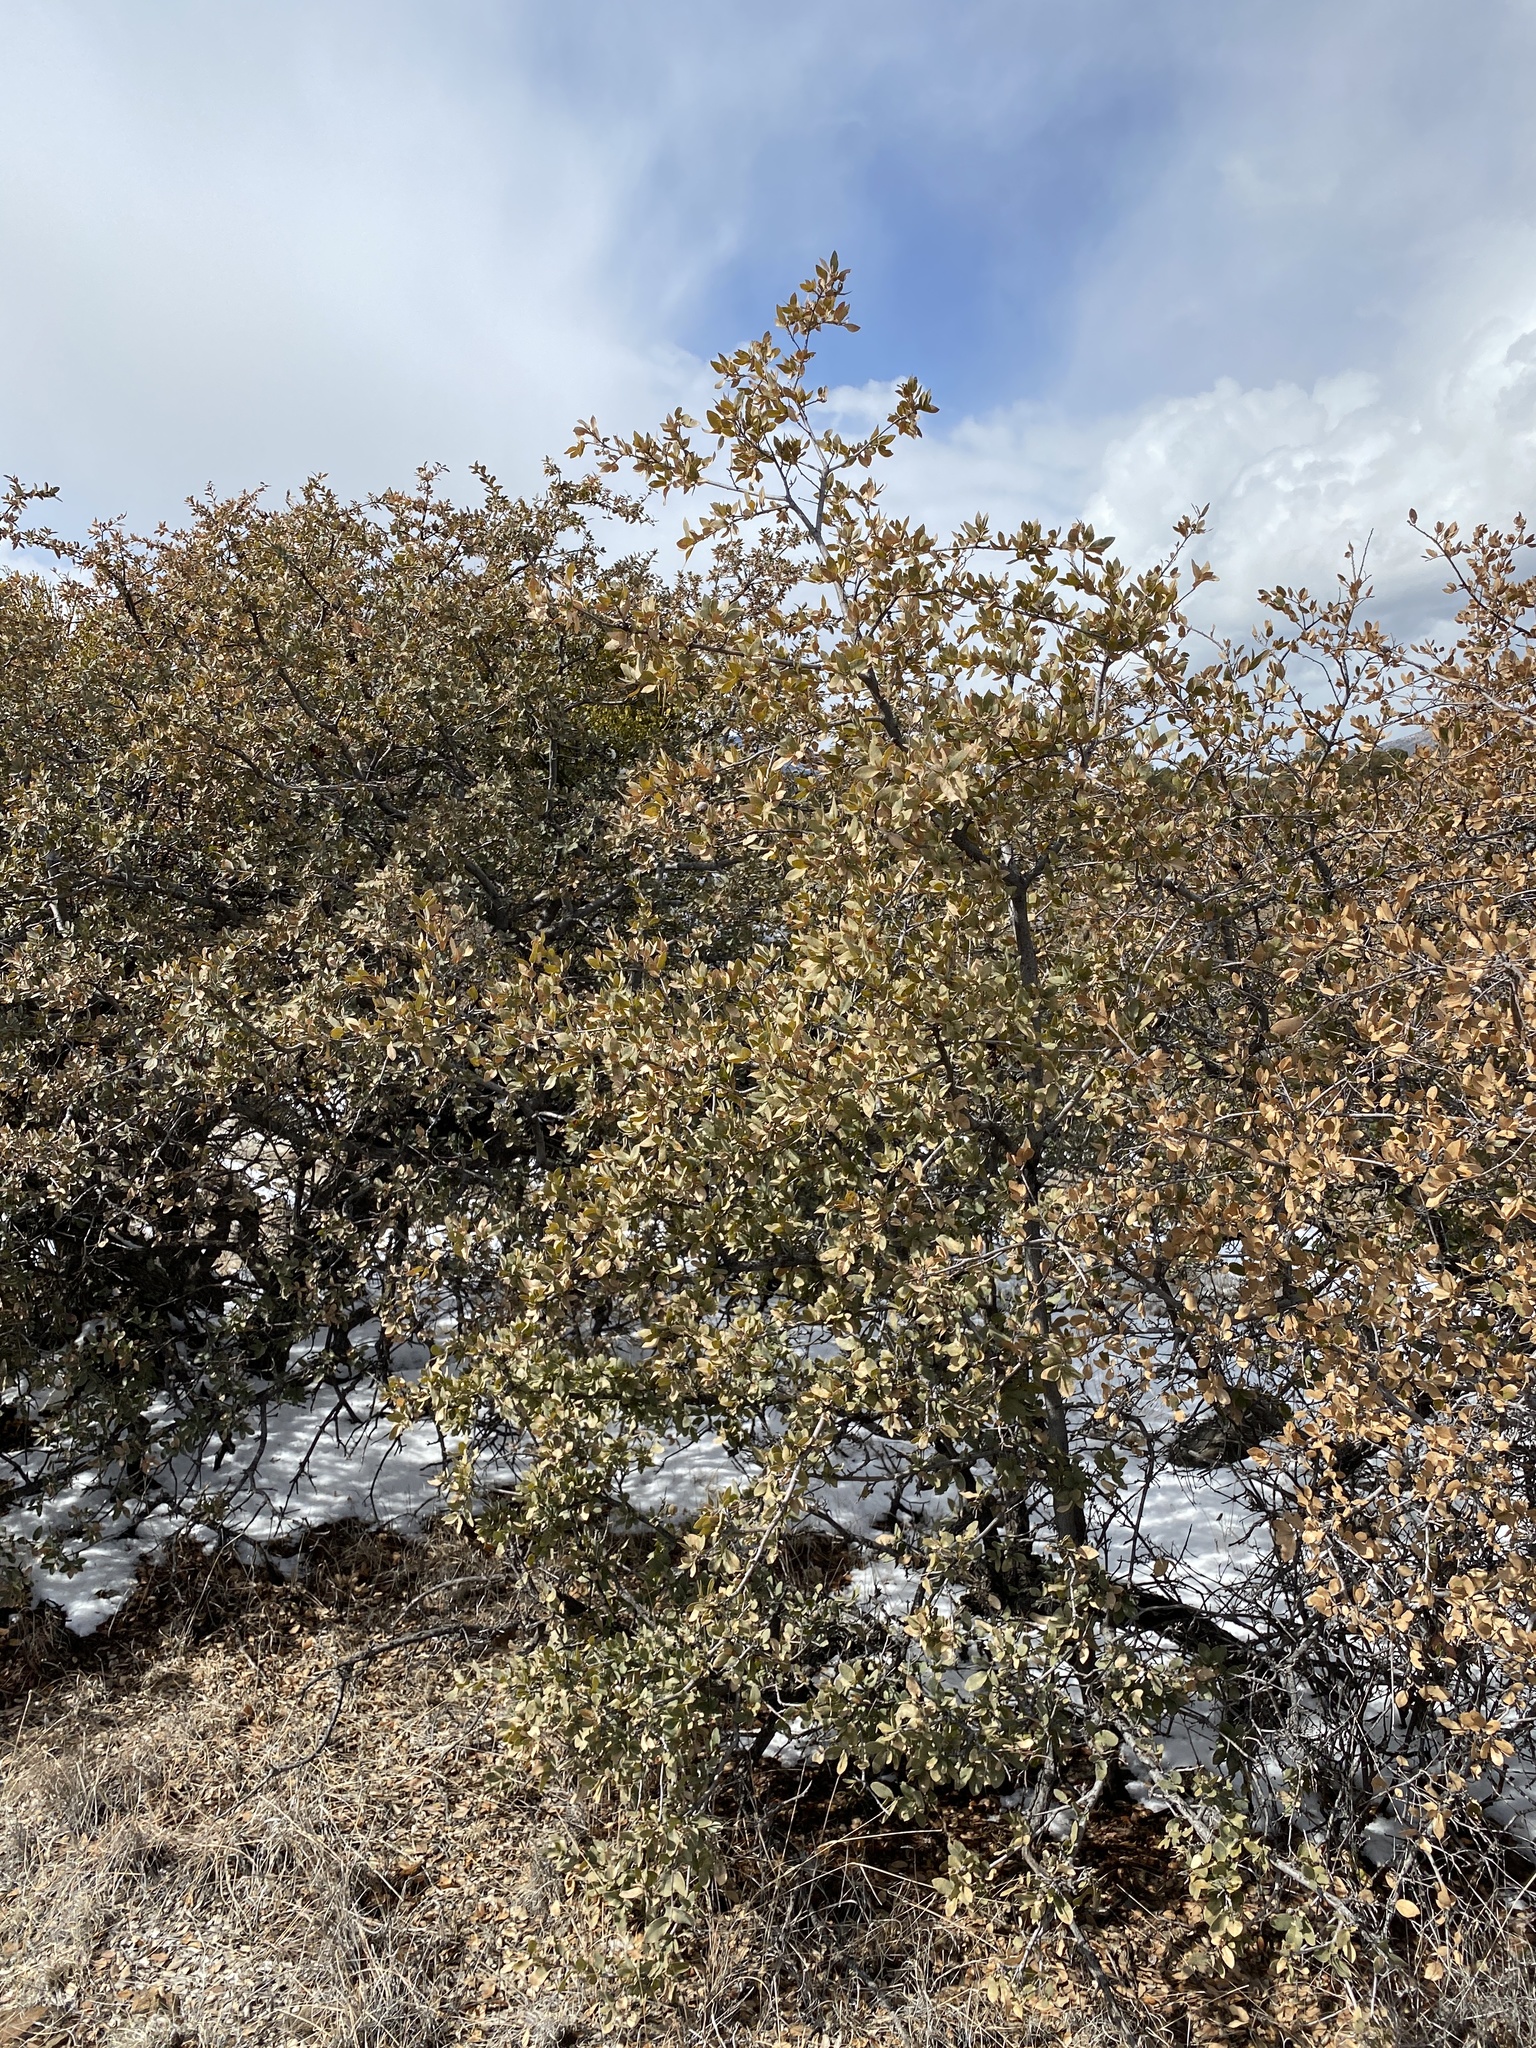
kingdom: Plantae
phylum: Tracheophyta
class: Magnoliopsida
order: Fagales
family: Fagaceae
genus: Quercus
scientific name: Quercus emoryi
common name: Emory oak
